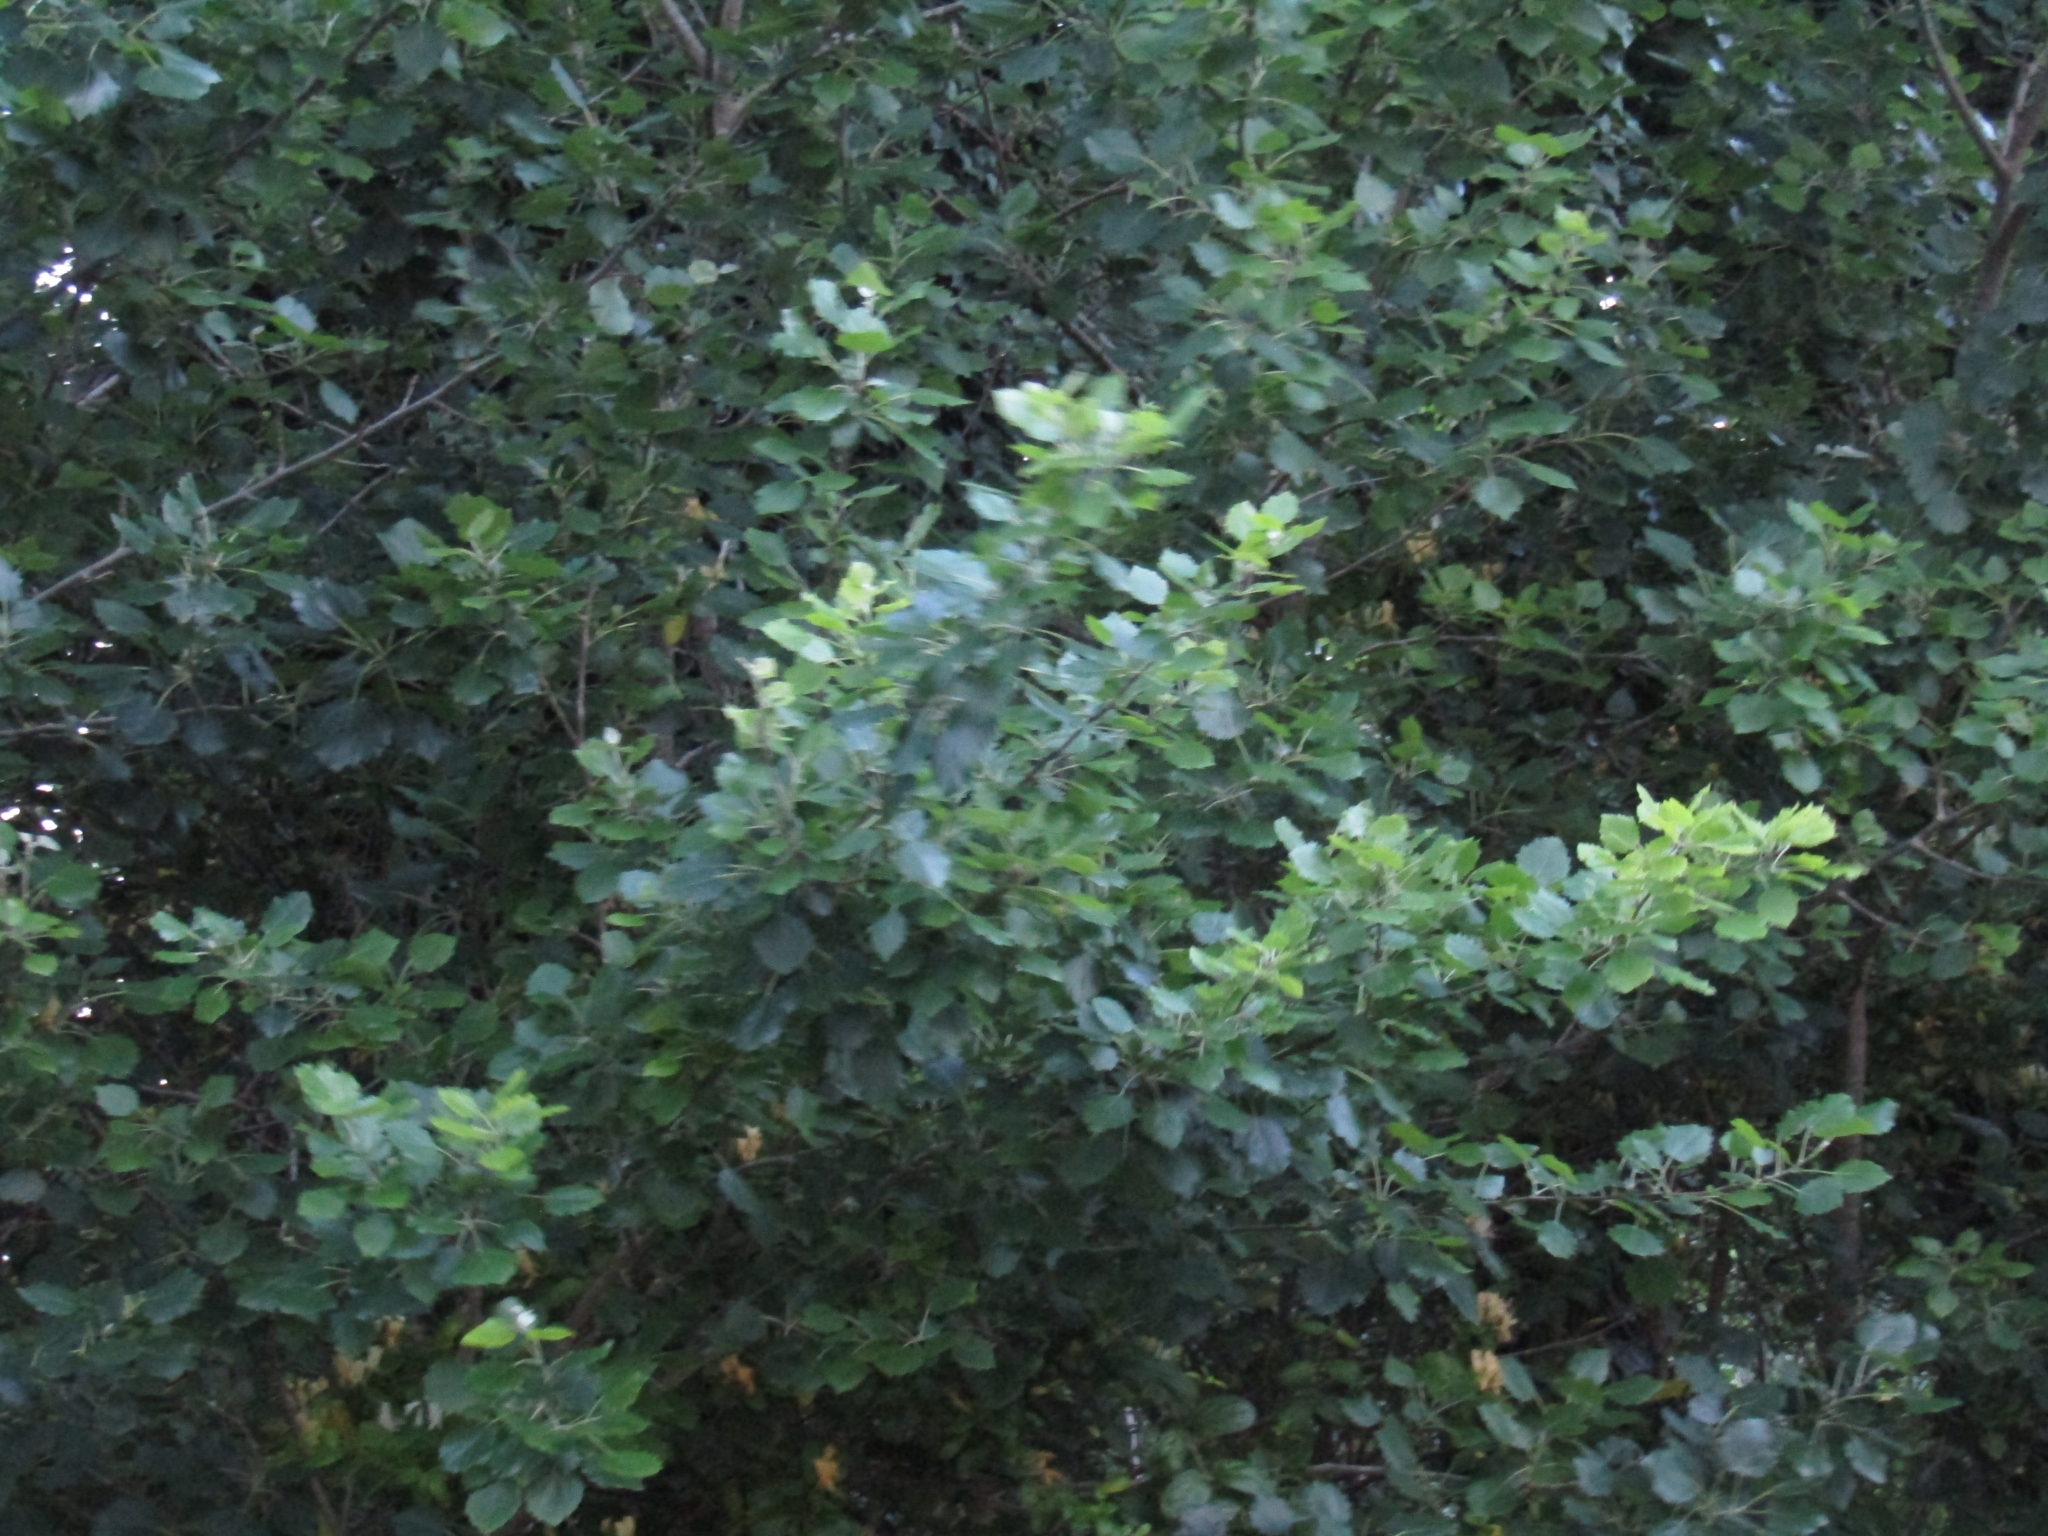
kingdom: Plantae
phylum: Tracheophyta
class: Magnoliopsida
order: Malpighiales
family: Salicaceae
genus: Populus
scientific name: Populus alba
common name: White poplar
